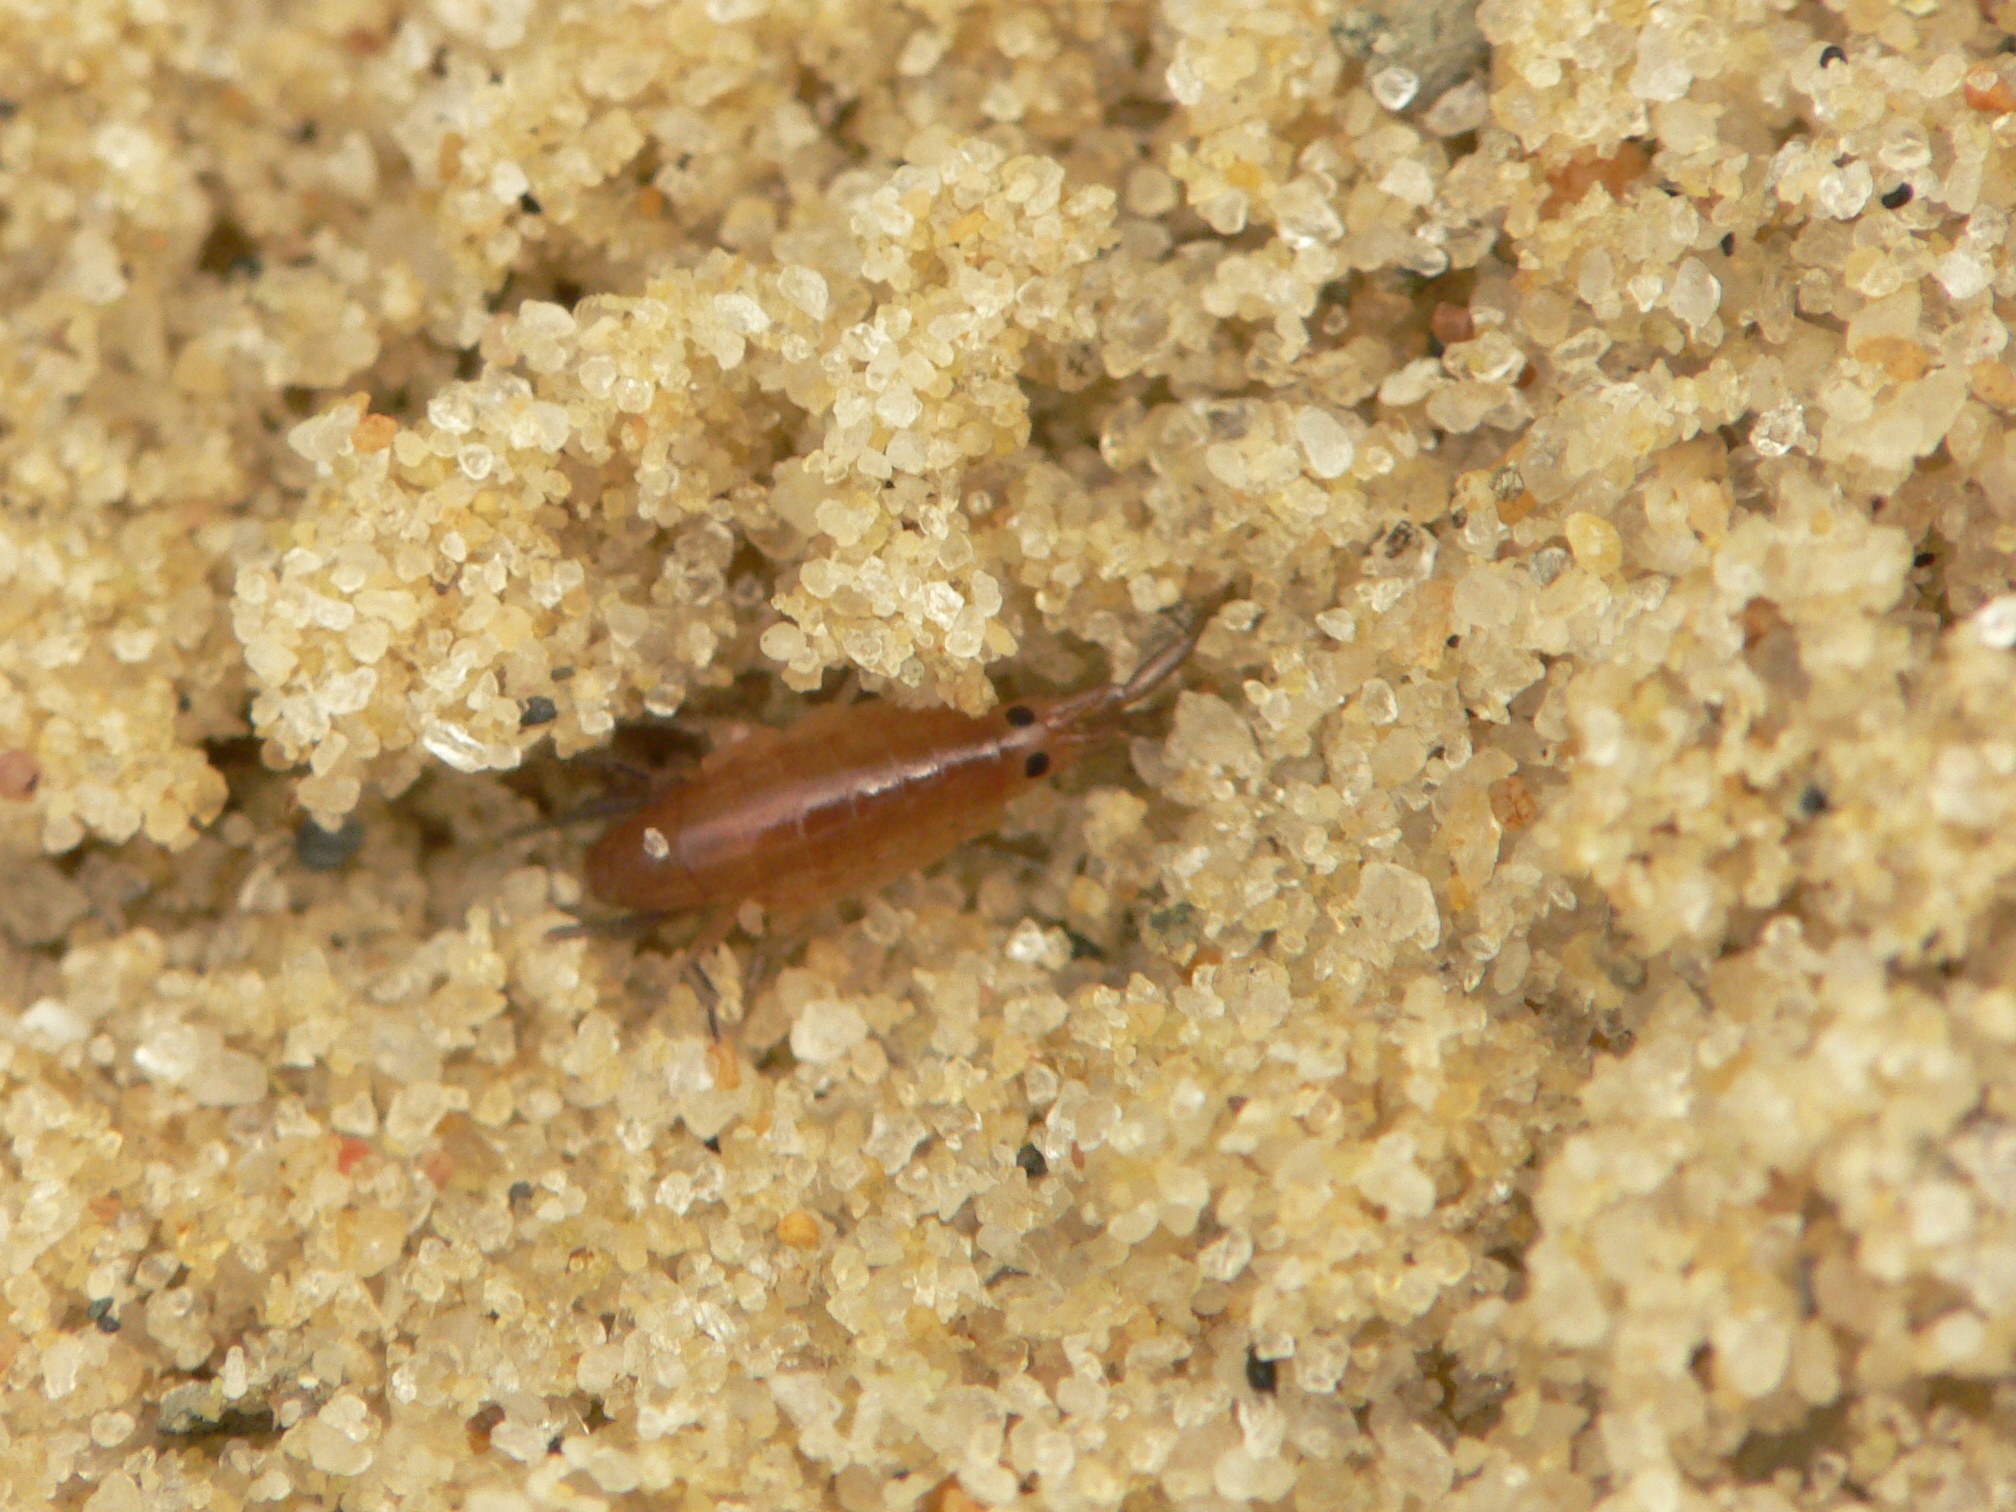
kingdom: Animalia
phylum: Arthropoda
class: Malacostraca
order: Amphipoda
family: Talitridae
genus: Platorchestia
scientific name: Platorchestia platensis
